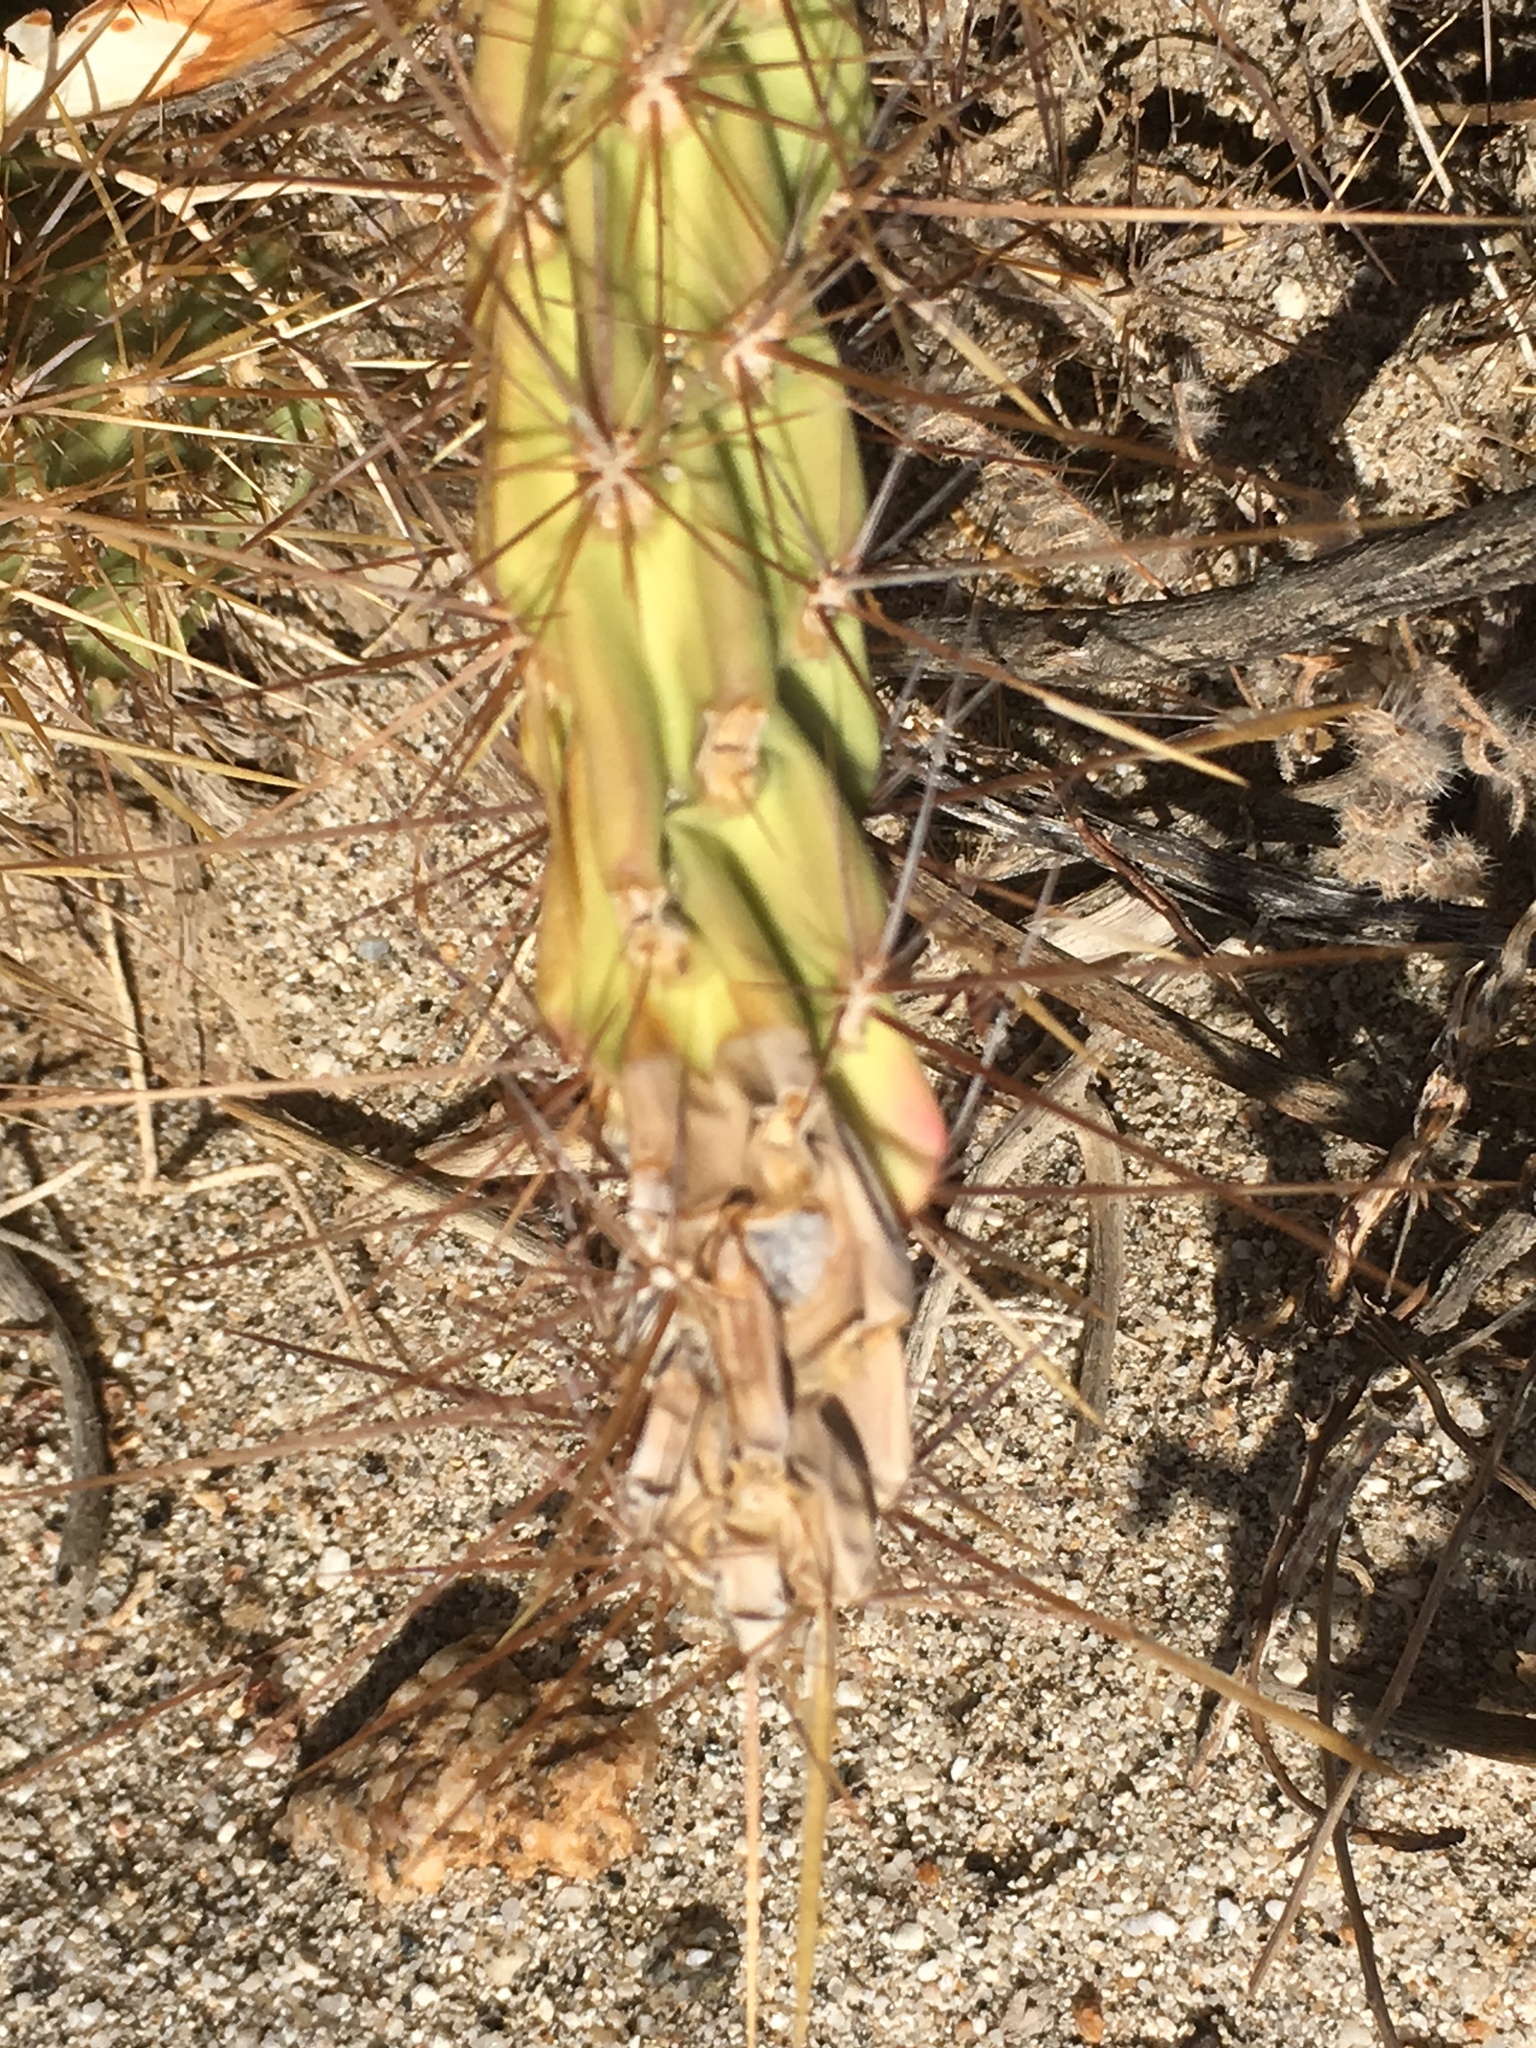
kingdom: Plantae
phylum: Tracheophyta
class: Magnoliopsida
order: Caryophyllales
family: Cactaceae
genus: Cylindropuntia
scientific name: Cylindropuntia ganderi
